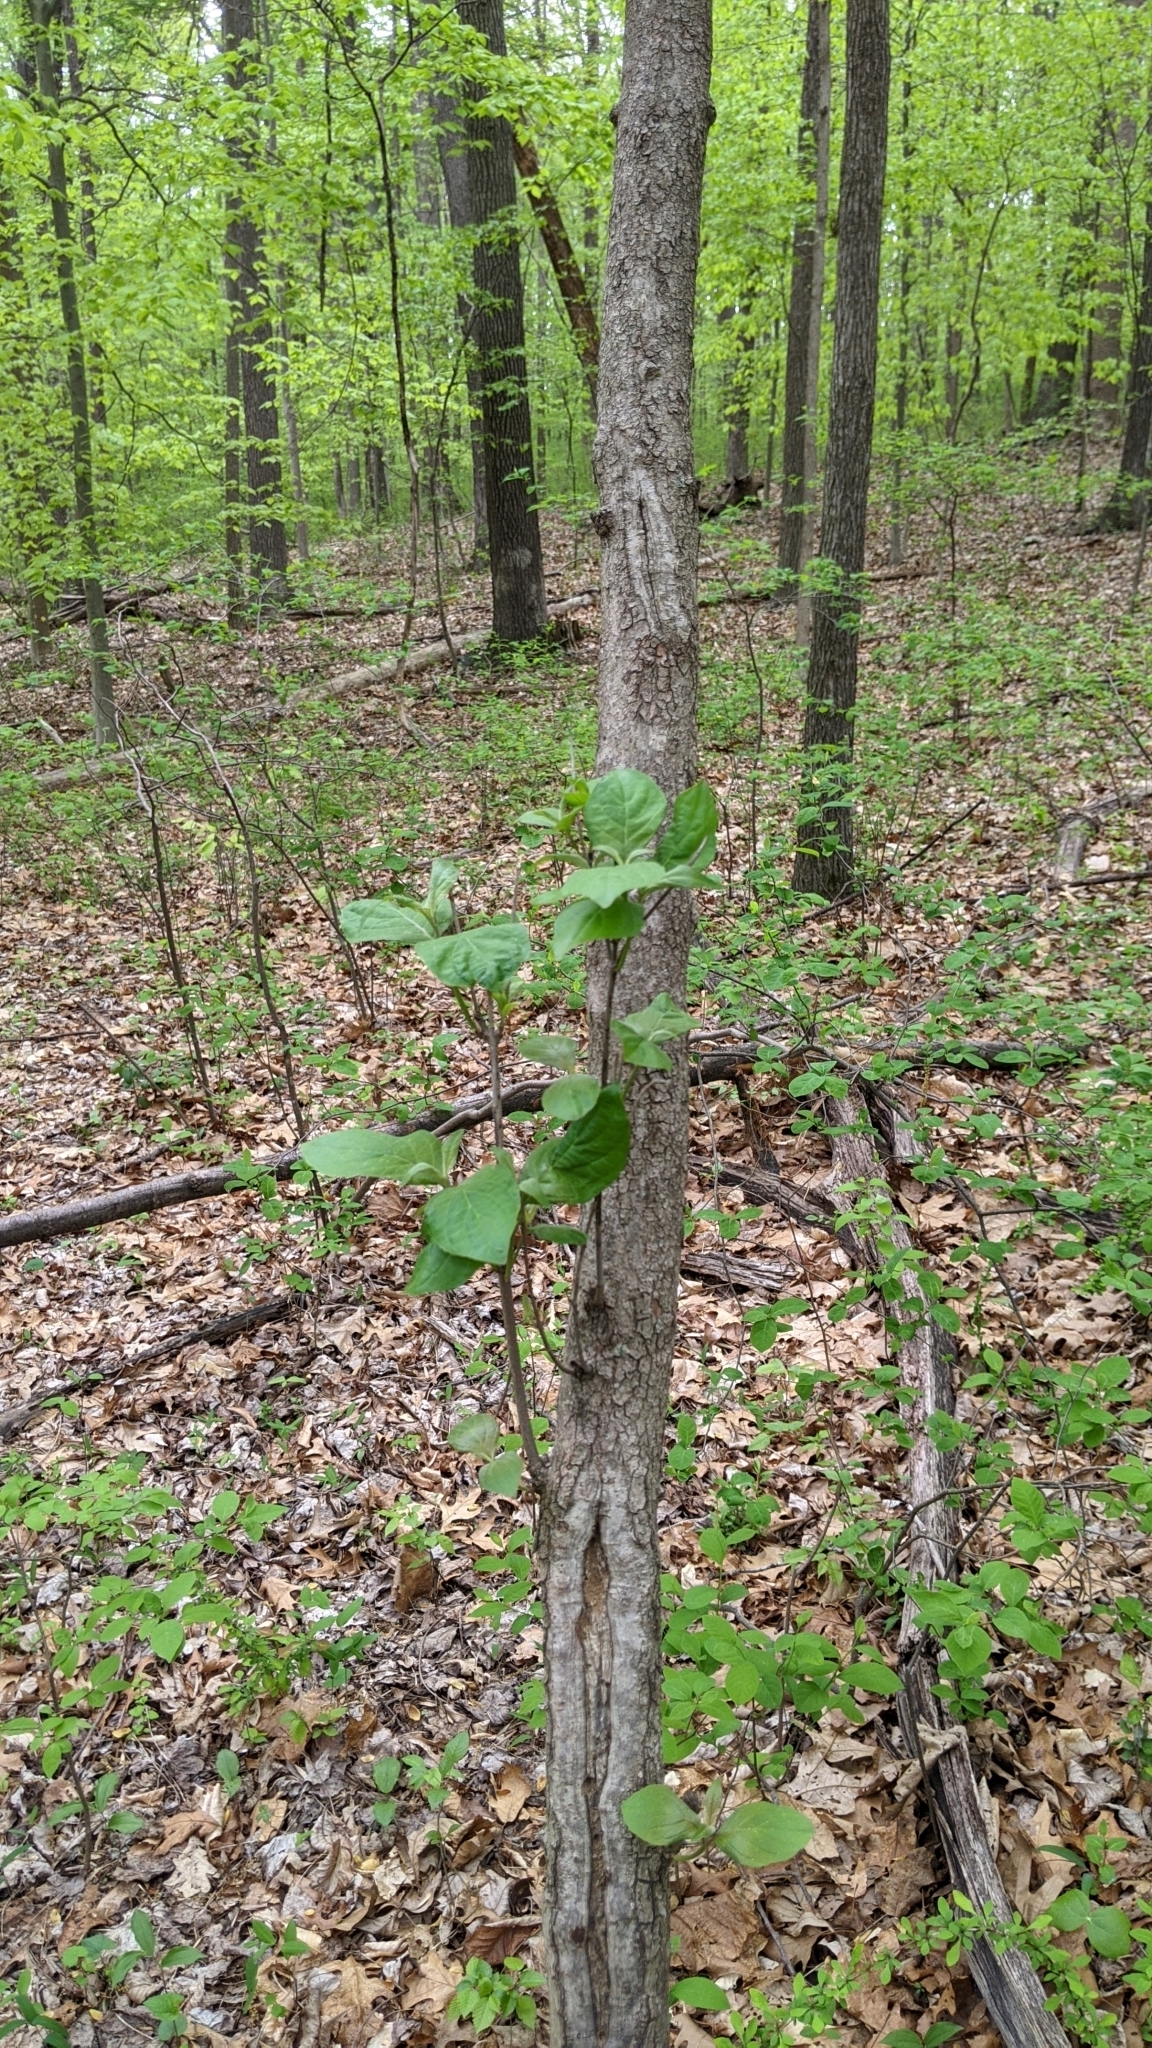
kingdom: Plantae
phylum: Tracheophyta
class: Magnoliopsida
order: Cornales
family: Cornaceae
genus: Cornus
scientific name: Cornus florida
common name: Flowering dogwood
